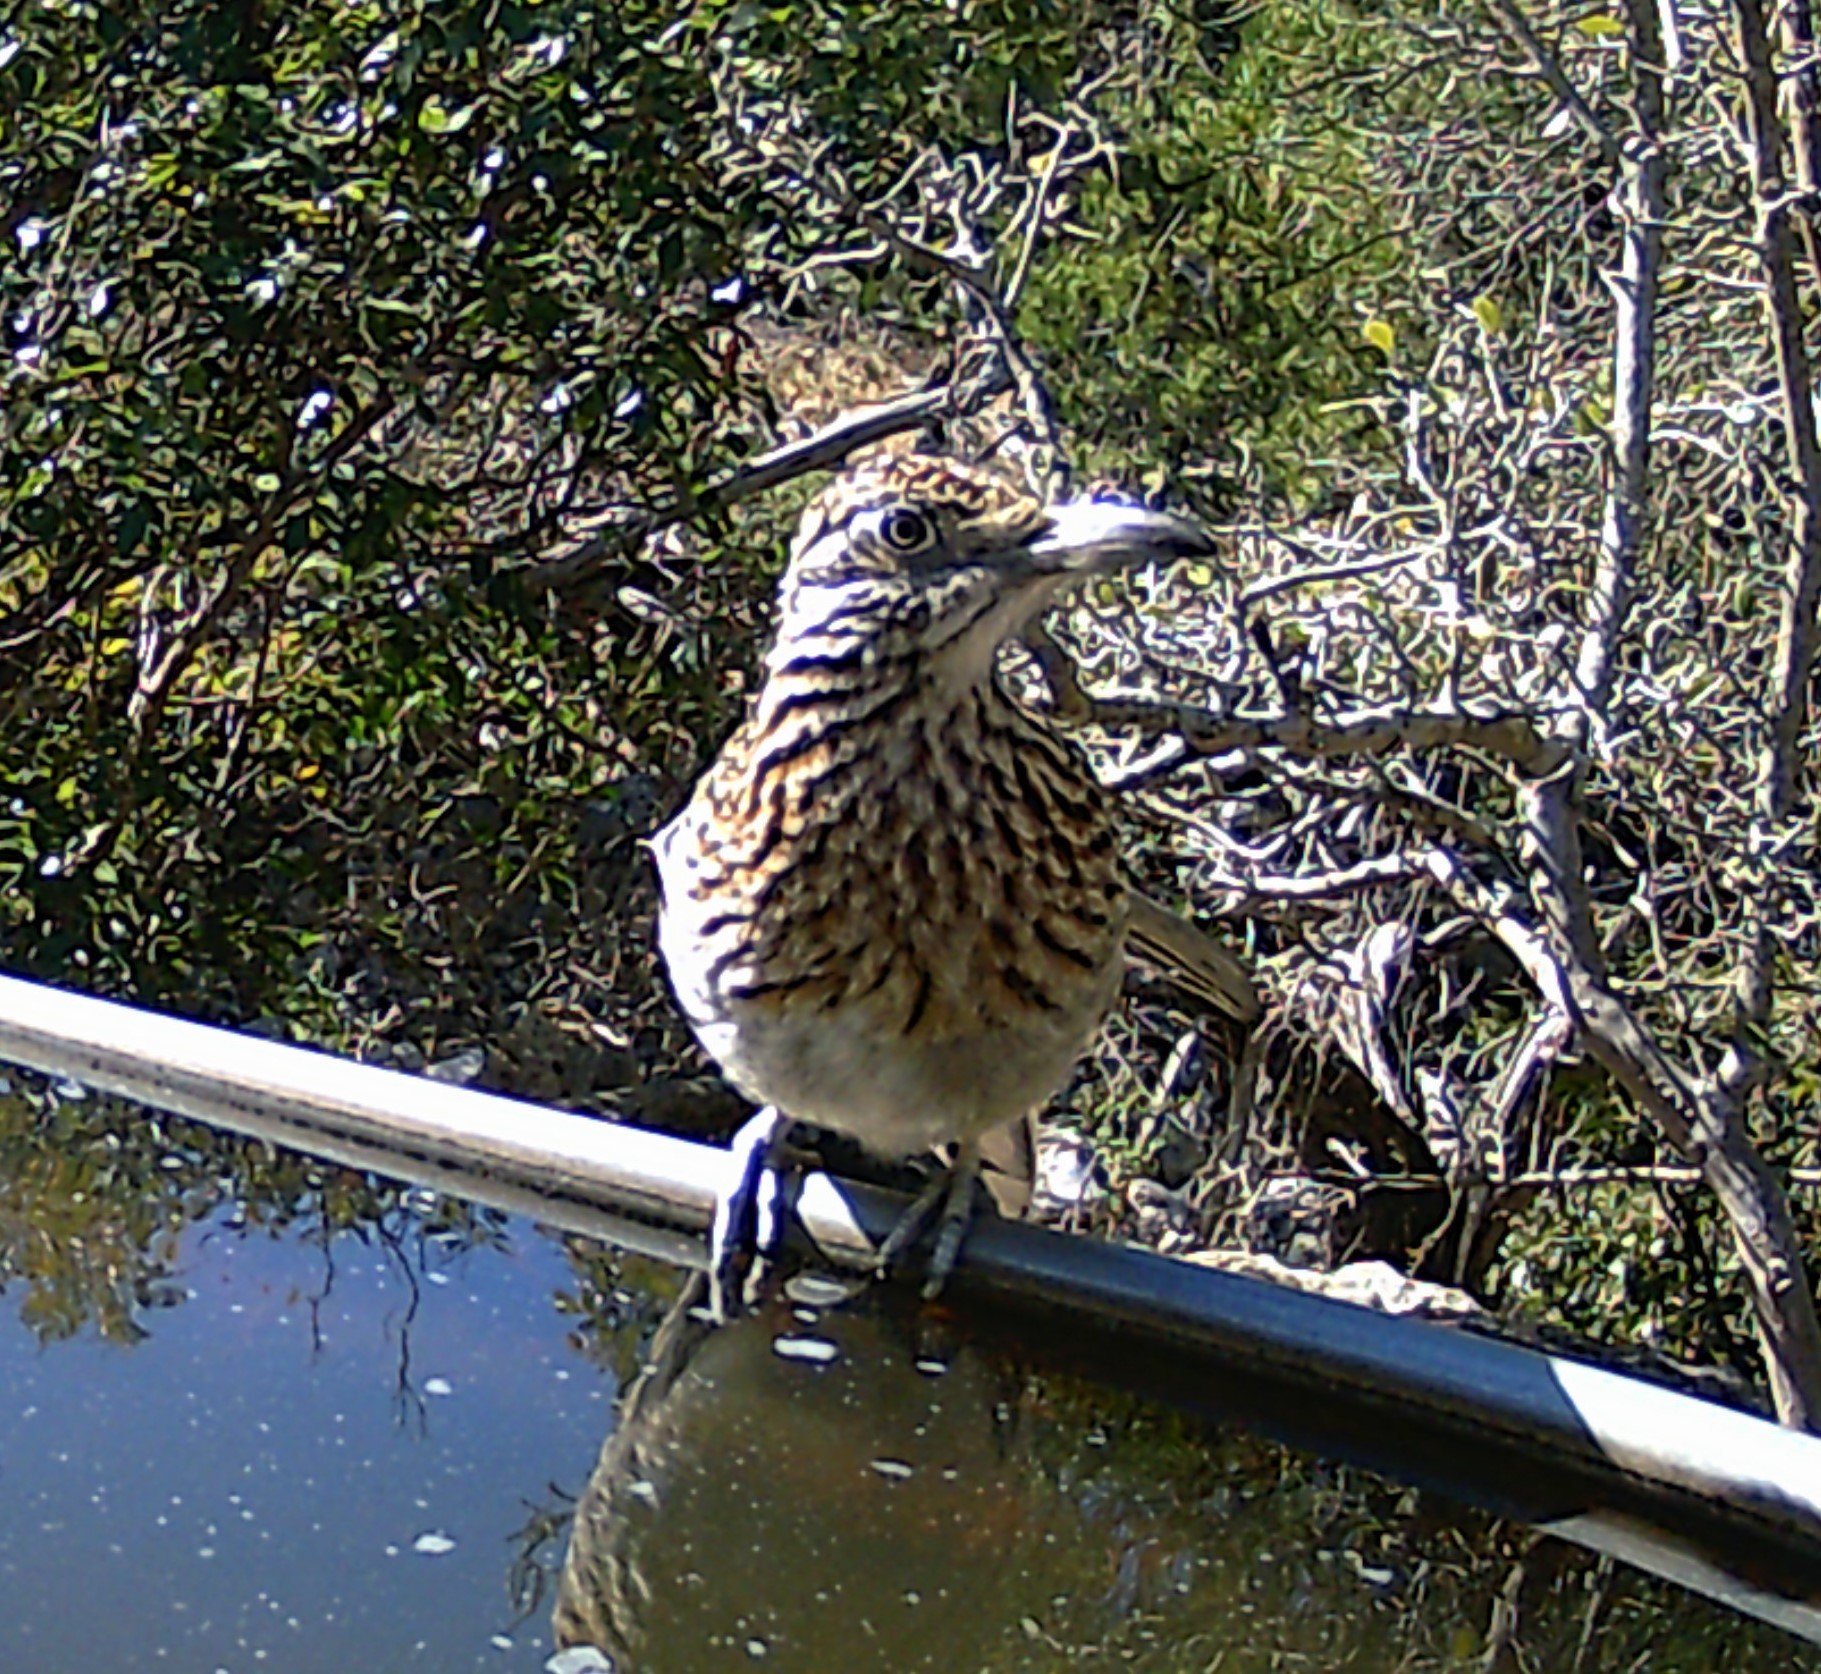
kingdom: Animalia
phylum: Chordata
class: Aves
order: Cuculiformes
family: Cuculidae
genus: Geococcyx
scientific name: Geococcyx californianus
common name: Greater roadrunner
